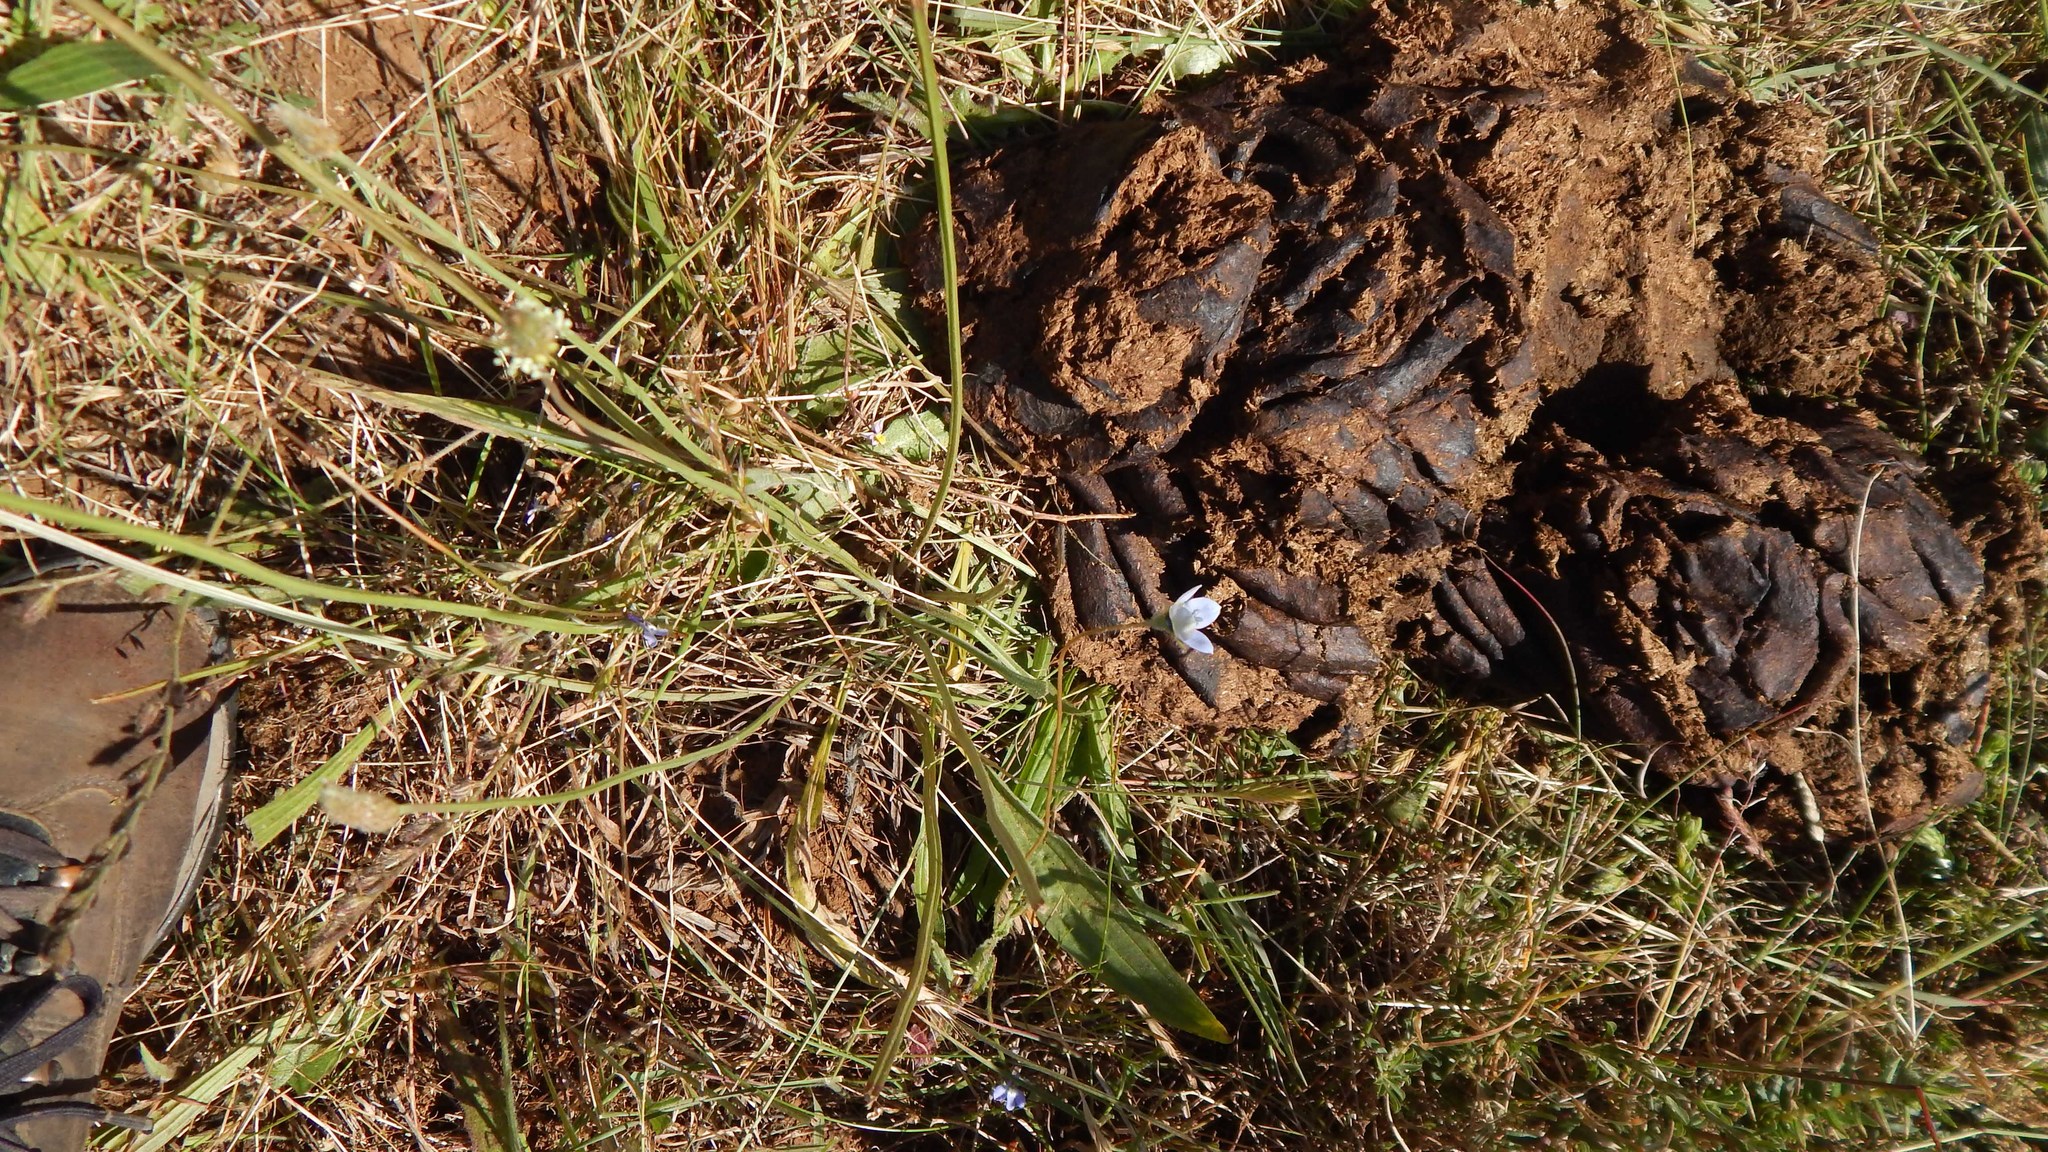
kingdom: Plantae
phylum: Tracheophyta
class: Magnoliopsida
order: Asterales
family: Campanulaceae
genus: Wahlenbergia
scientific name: Wahlenbergia capensis
